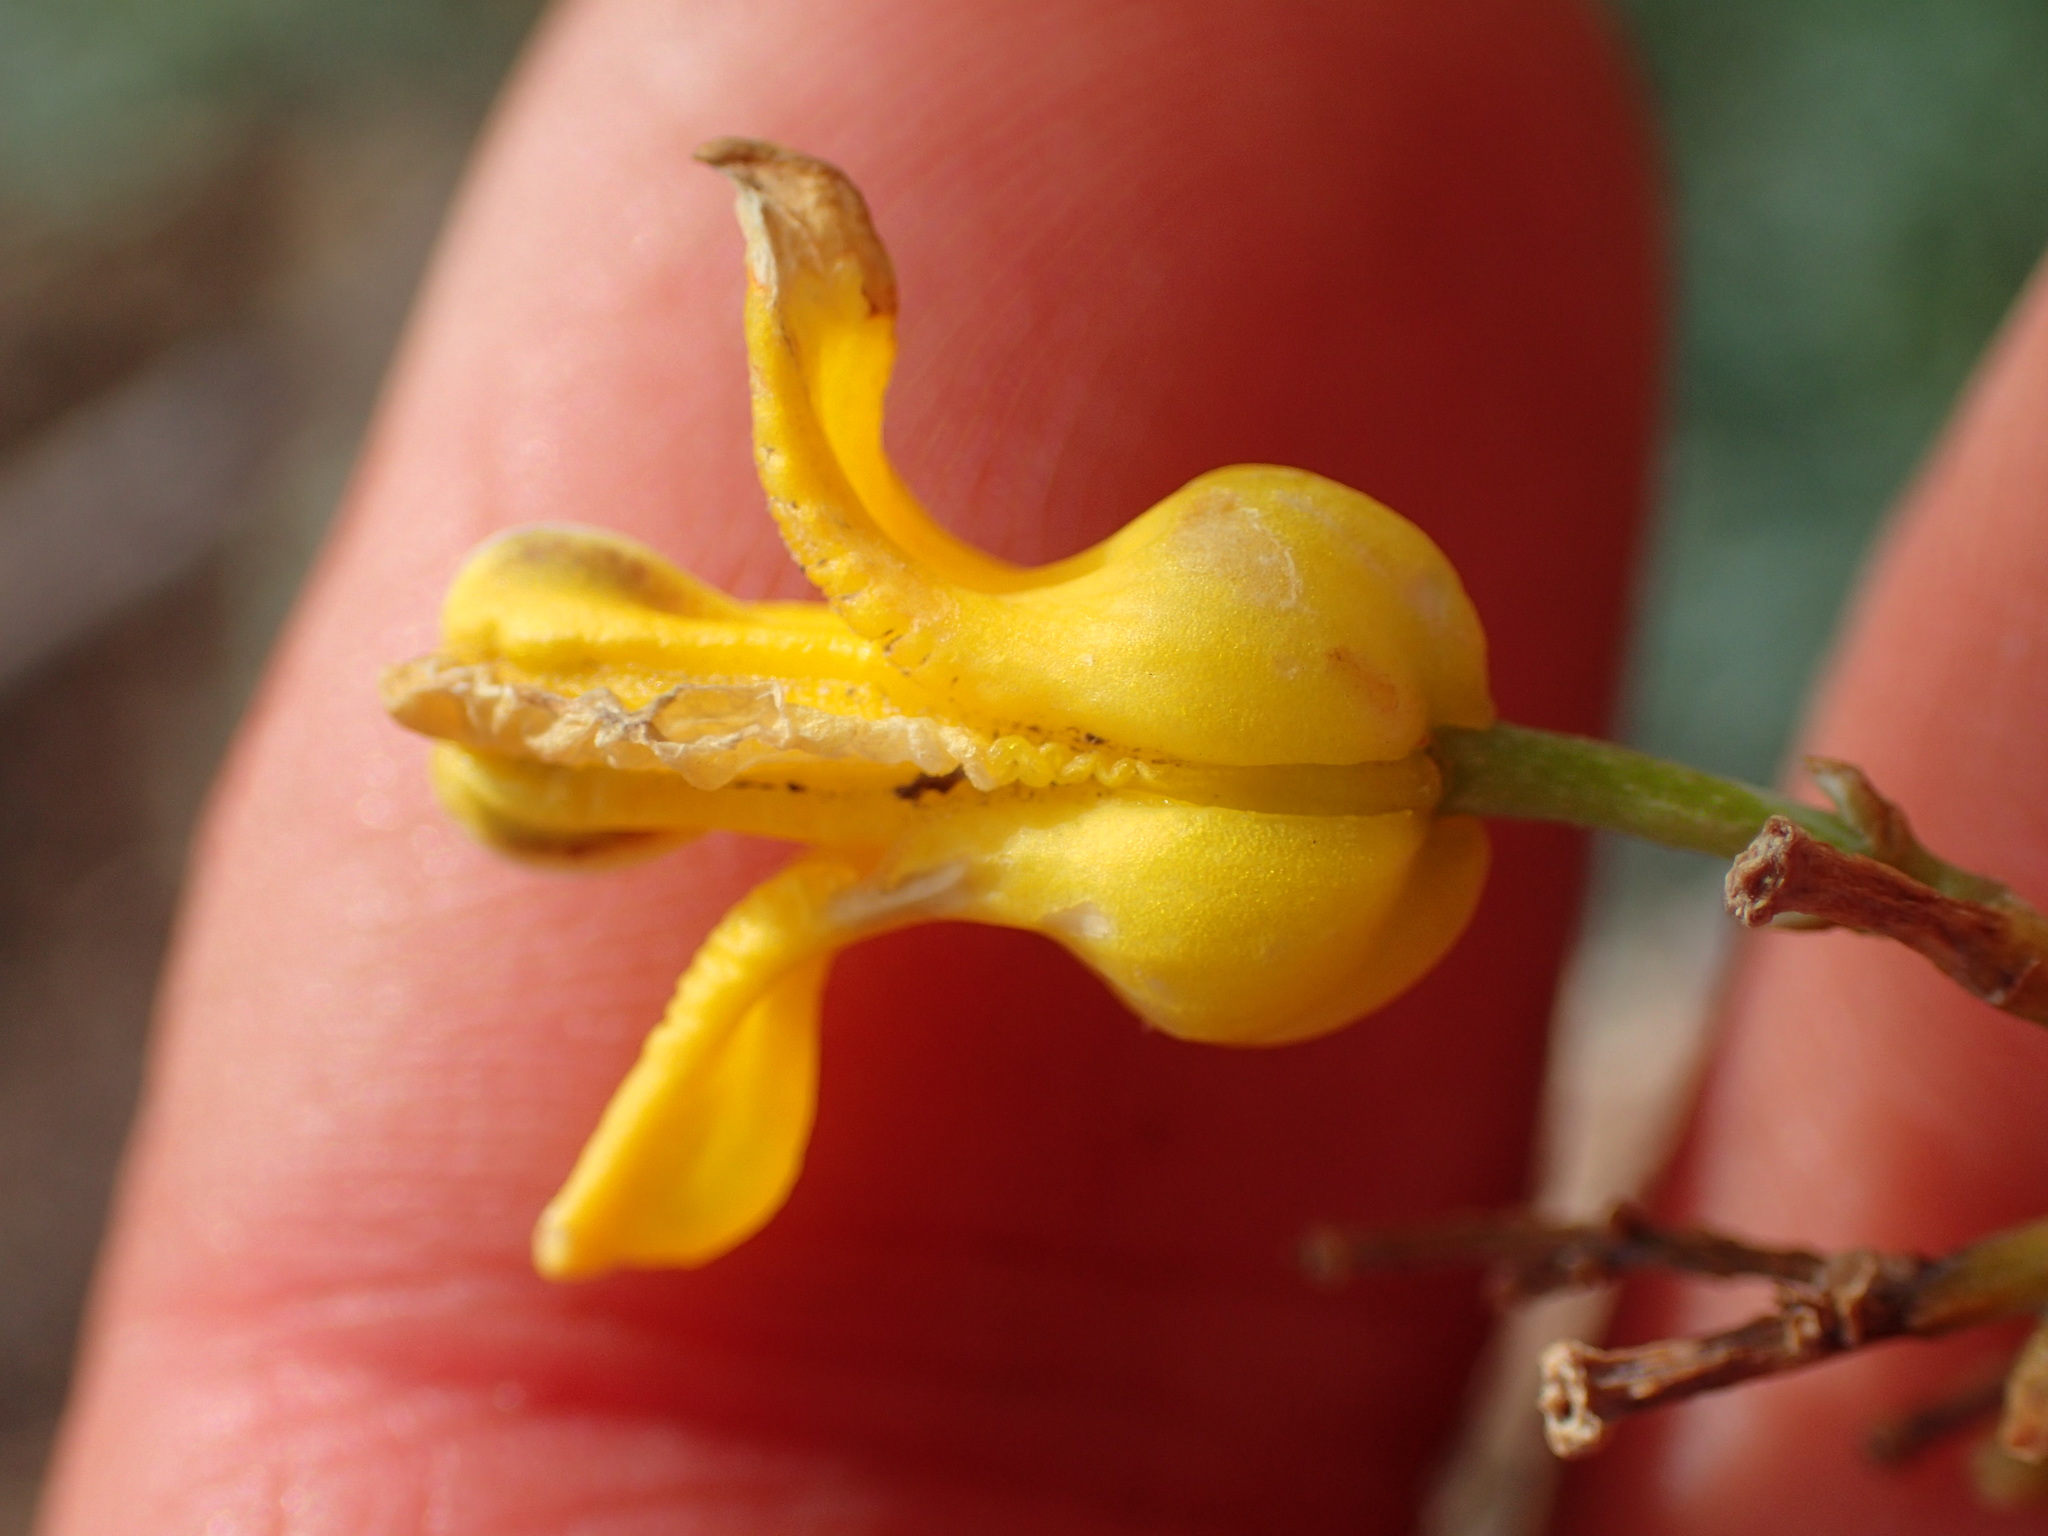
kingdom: Plantae
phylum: Tracheophyta
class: Magnoliopsida
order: Ranunculales
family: Papaveraceae
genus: Ehrendorferia
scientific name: Ehrendorferia chrysantha
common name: Golden eardrops
